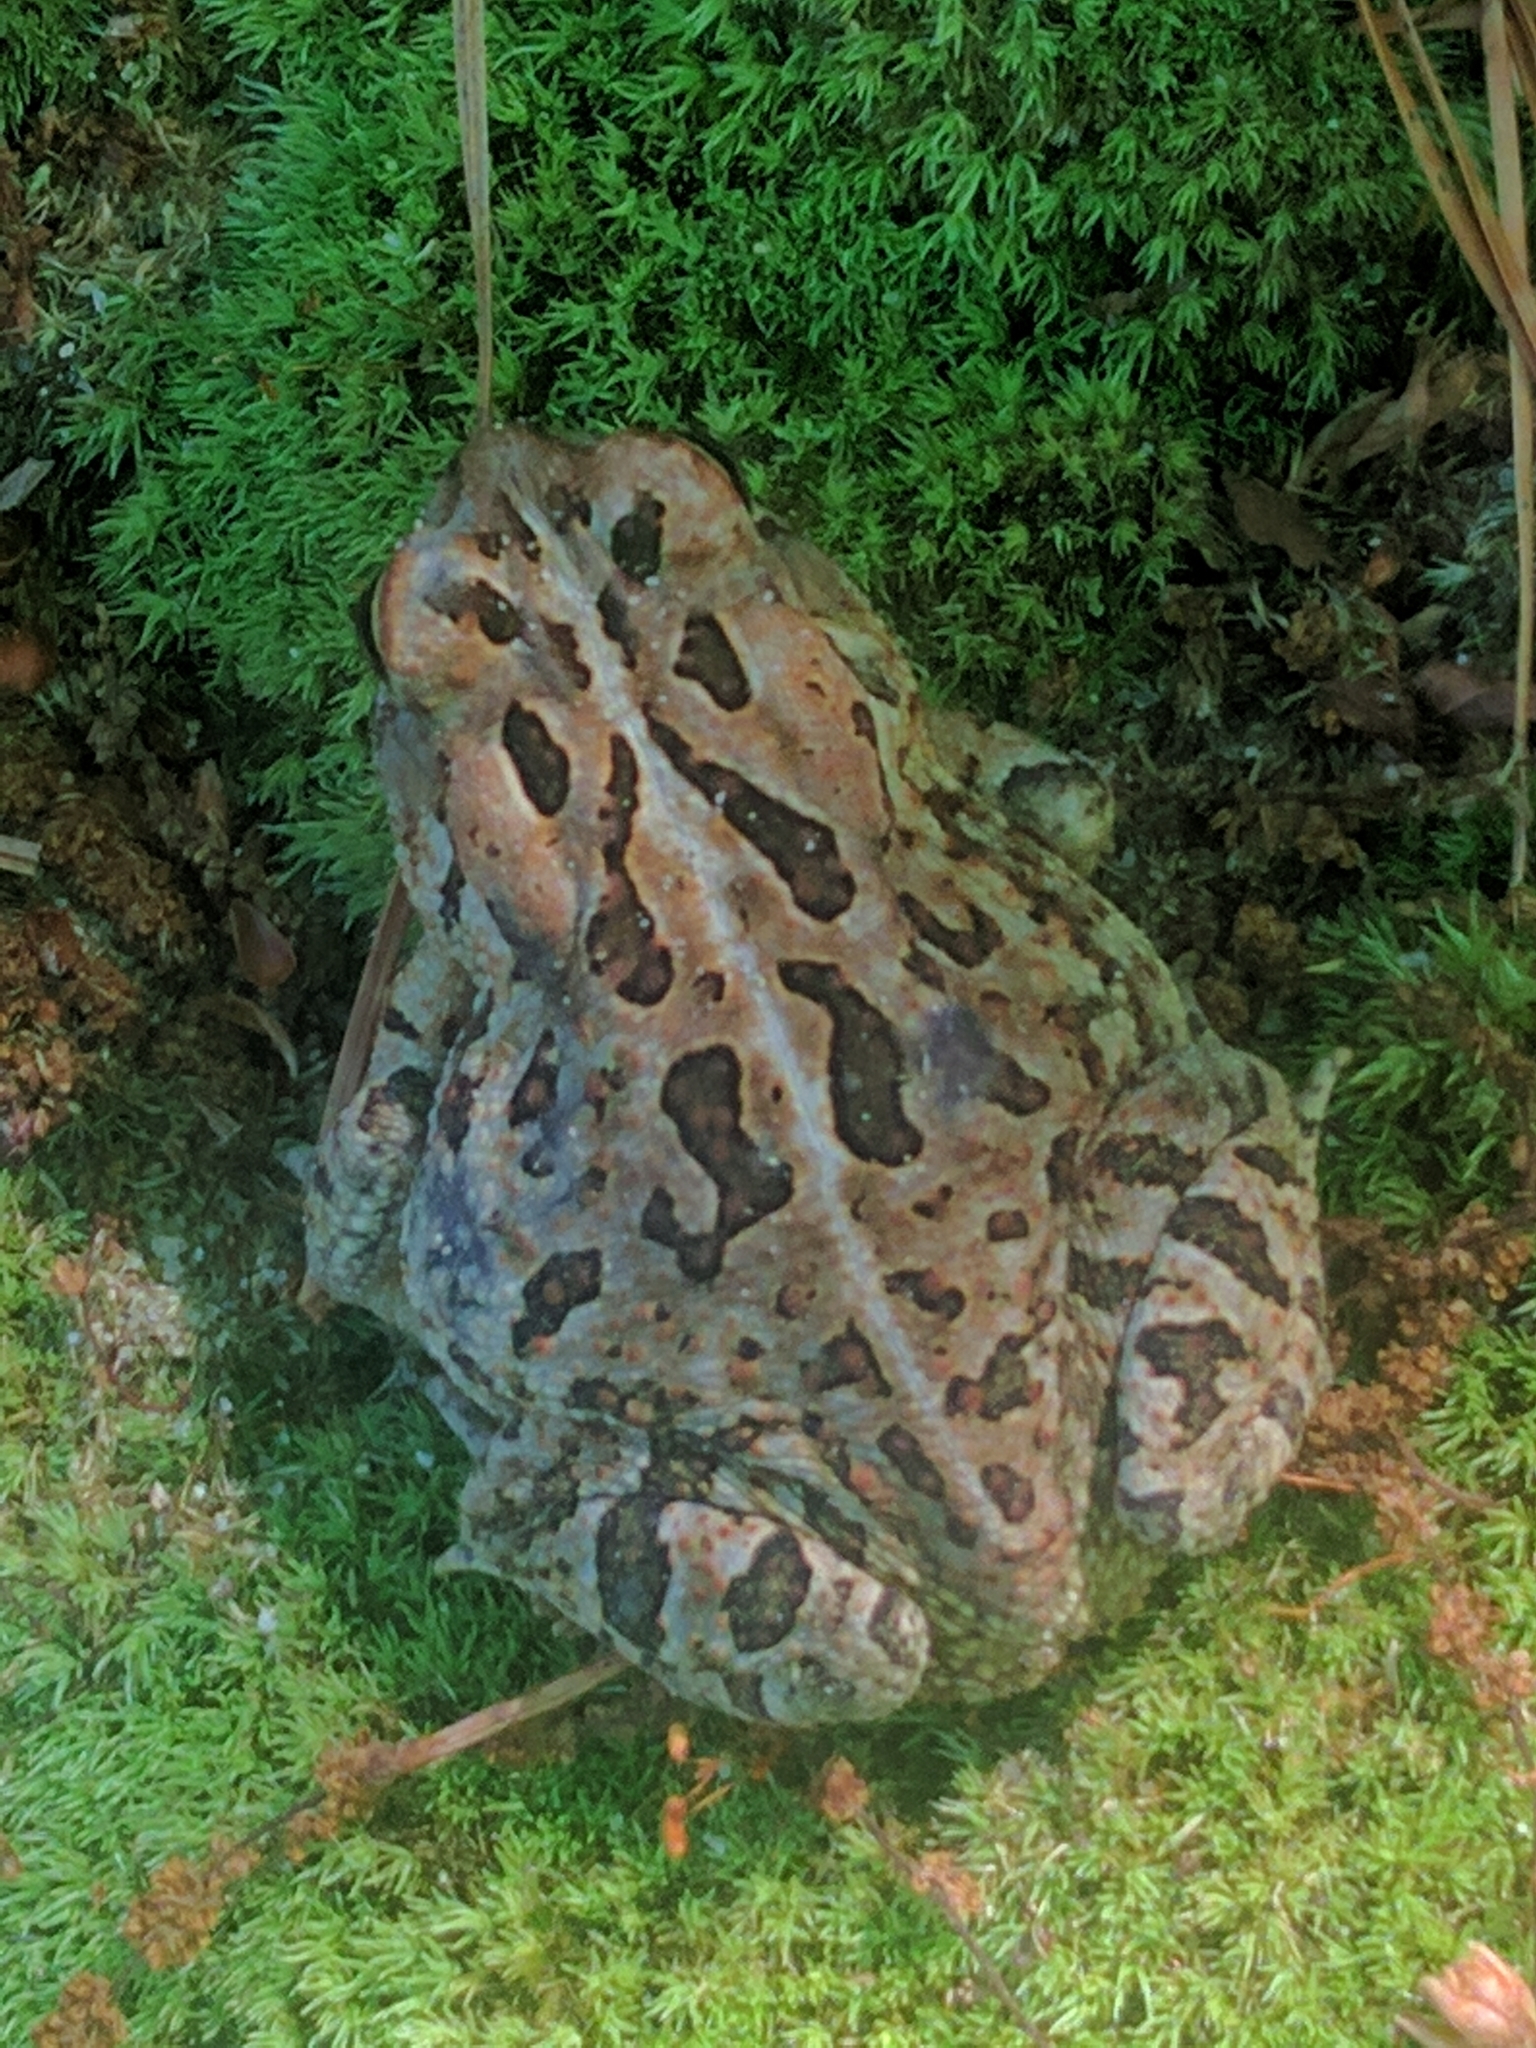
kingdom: Animalia
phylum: Chordata
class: Amphibia
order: Anura
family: Bufonidae
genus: Anaxyrus
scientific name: Anaxyrus fowleri
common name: Fowler's toad
